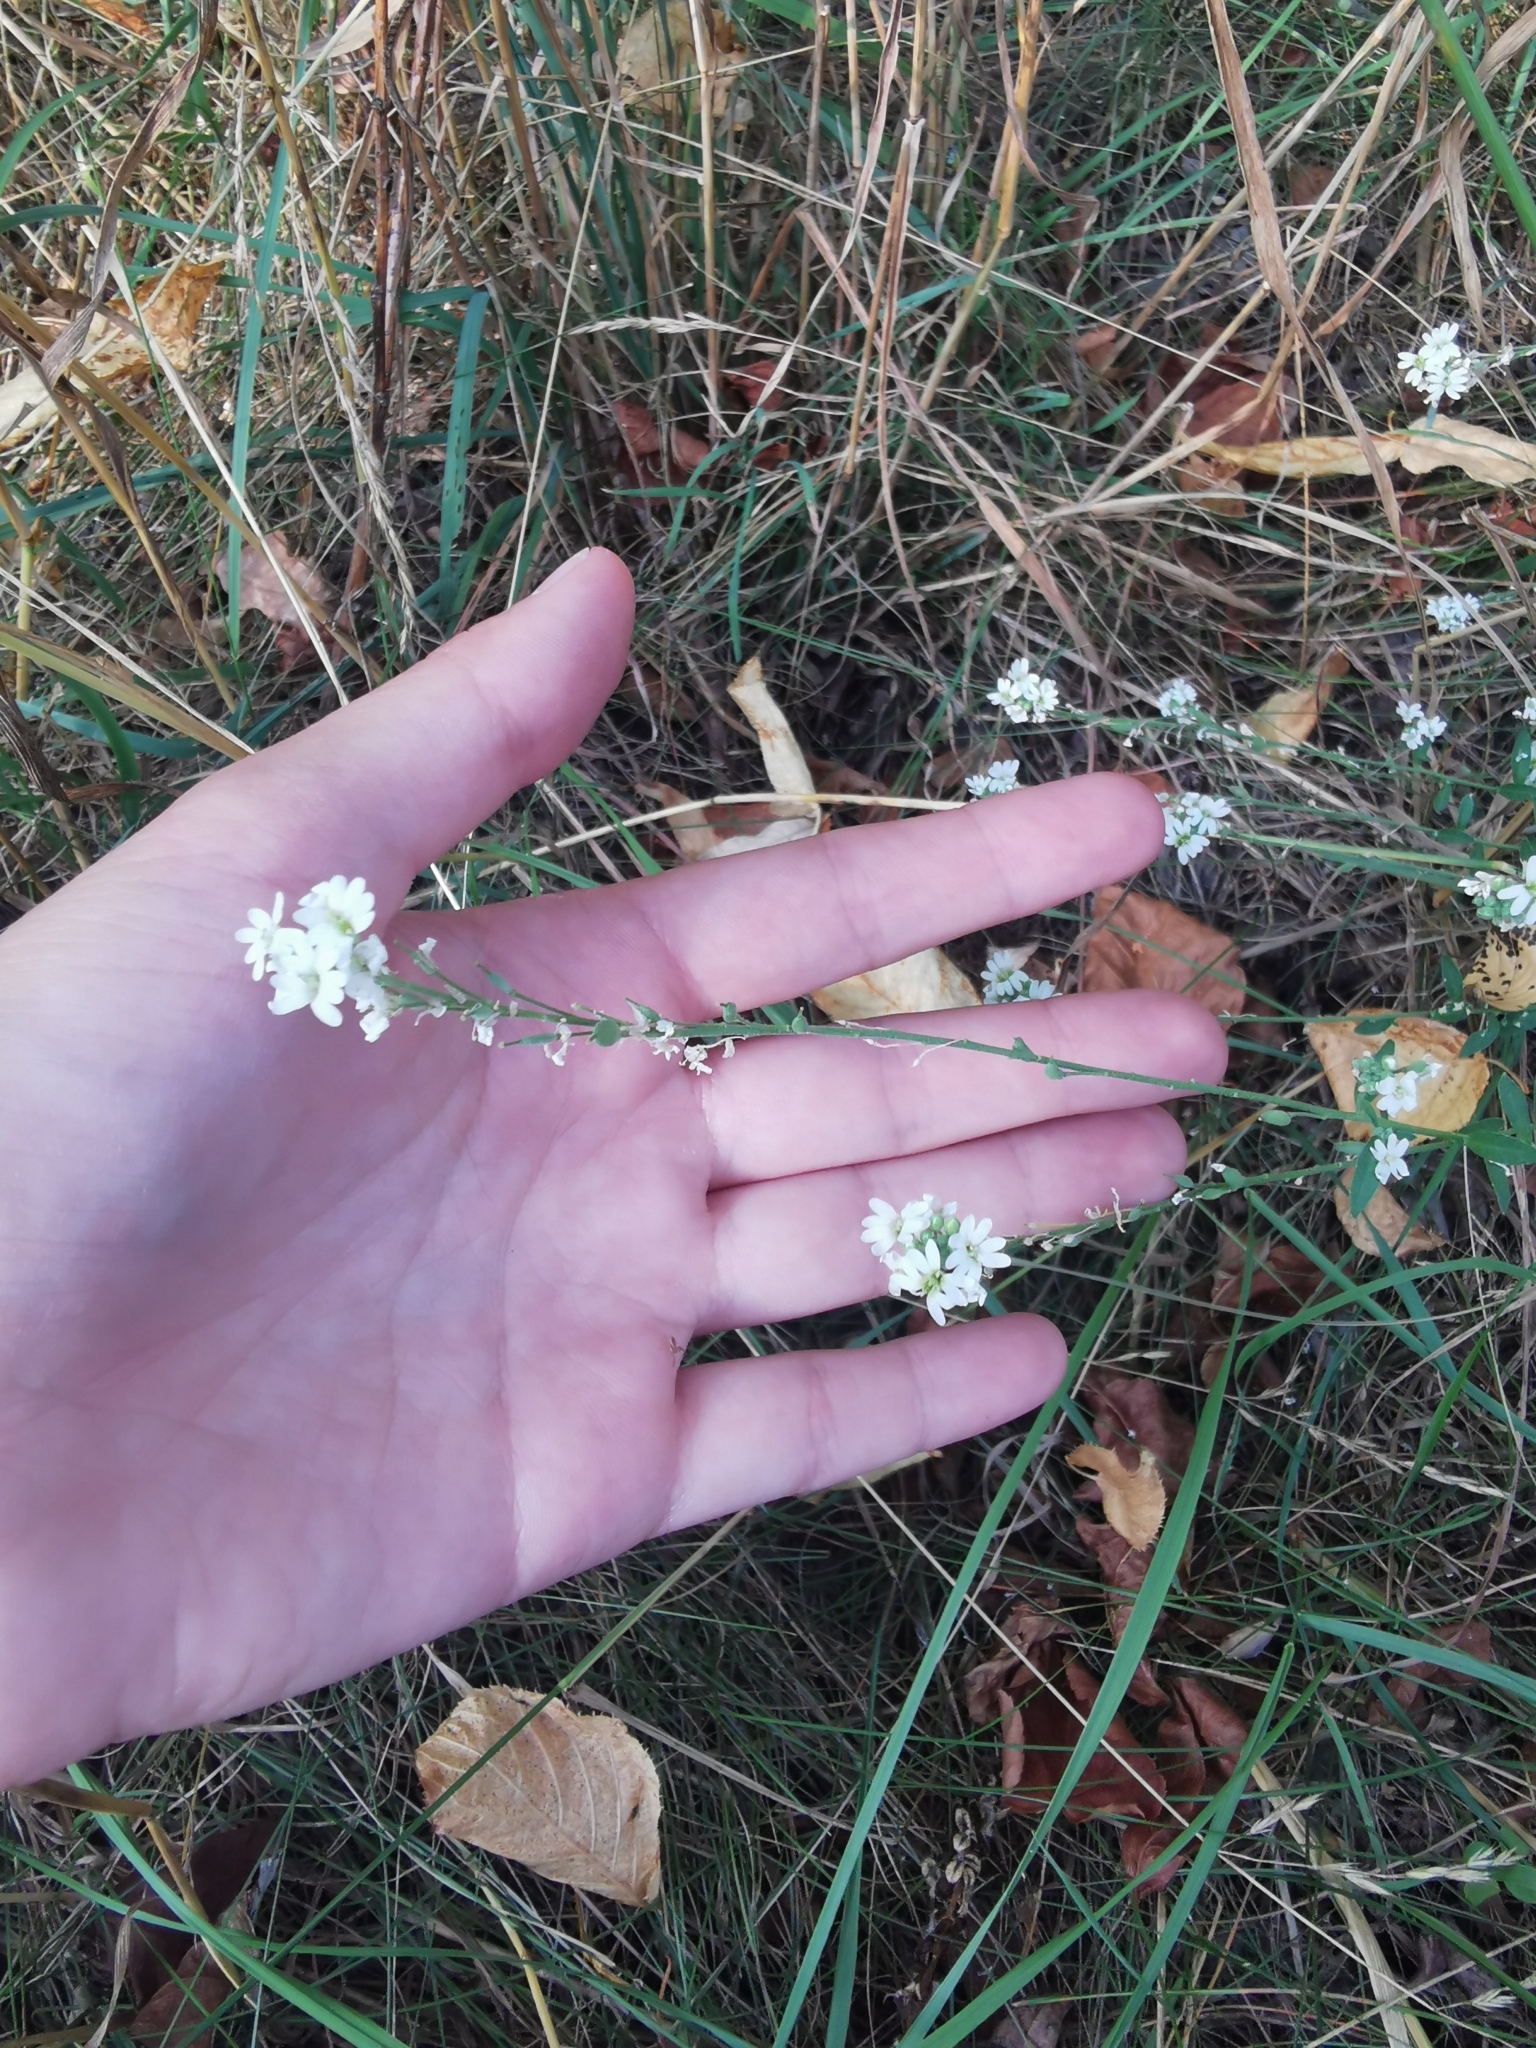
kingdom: Plantae
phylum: Tracheophyta
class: Magnoliopsida
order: Brassicales
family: Brassicaceae
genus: Berteroa
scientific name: Berteroa incana
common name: Hoary alison
